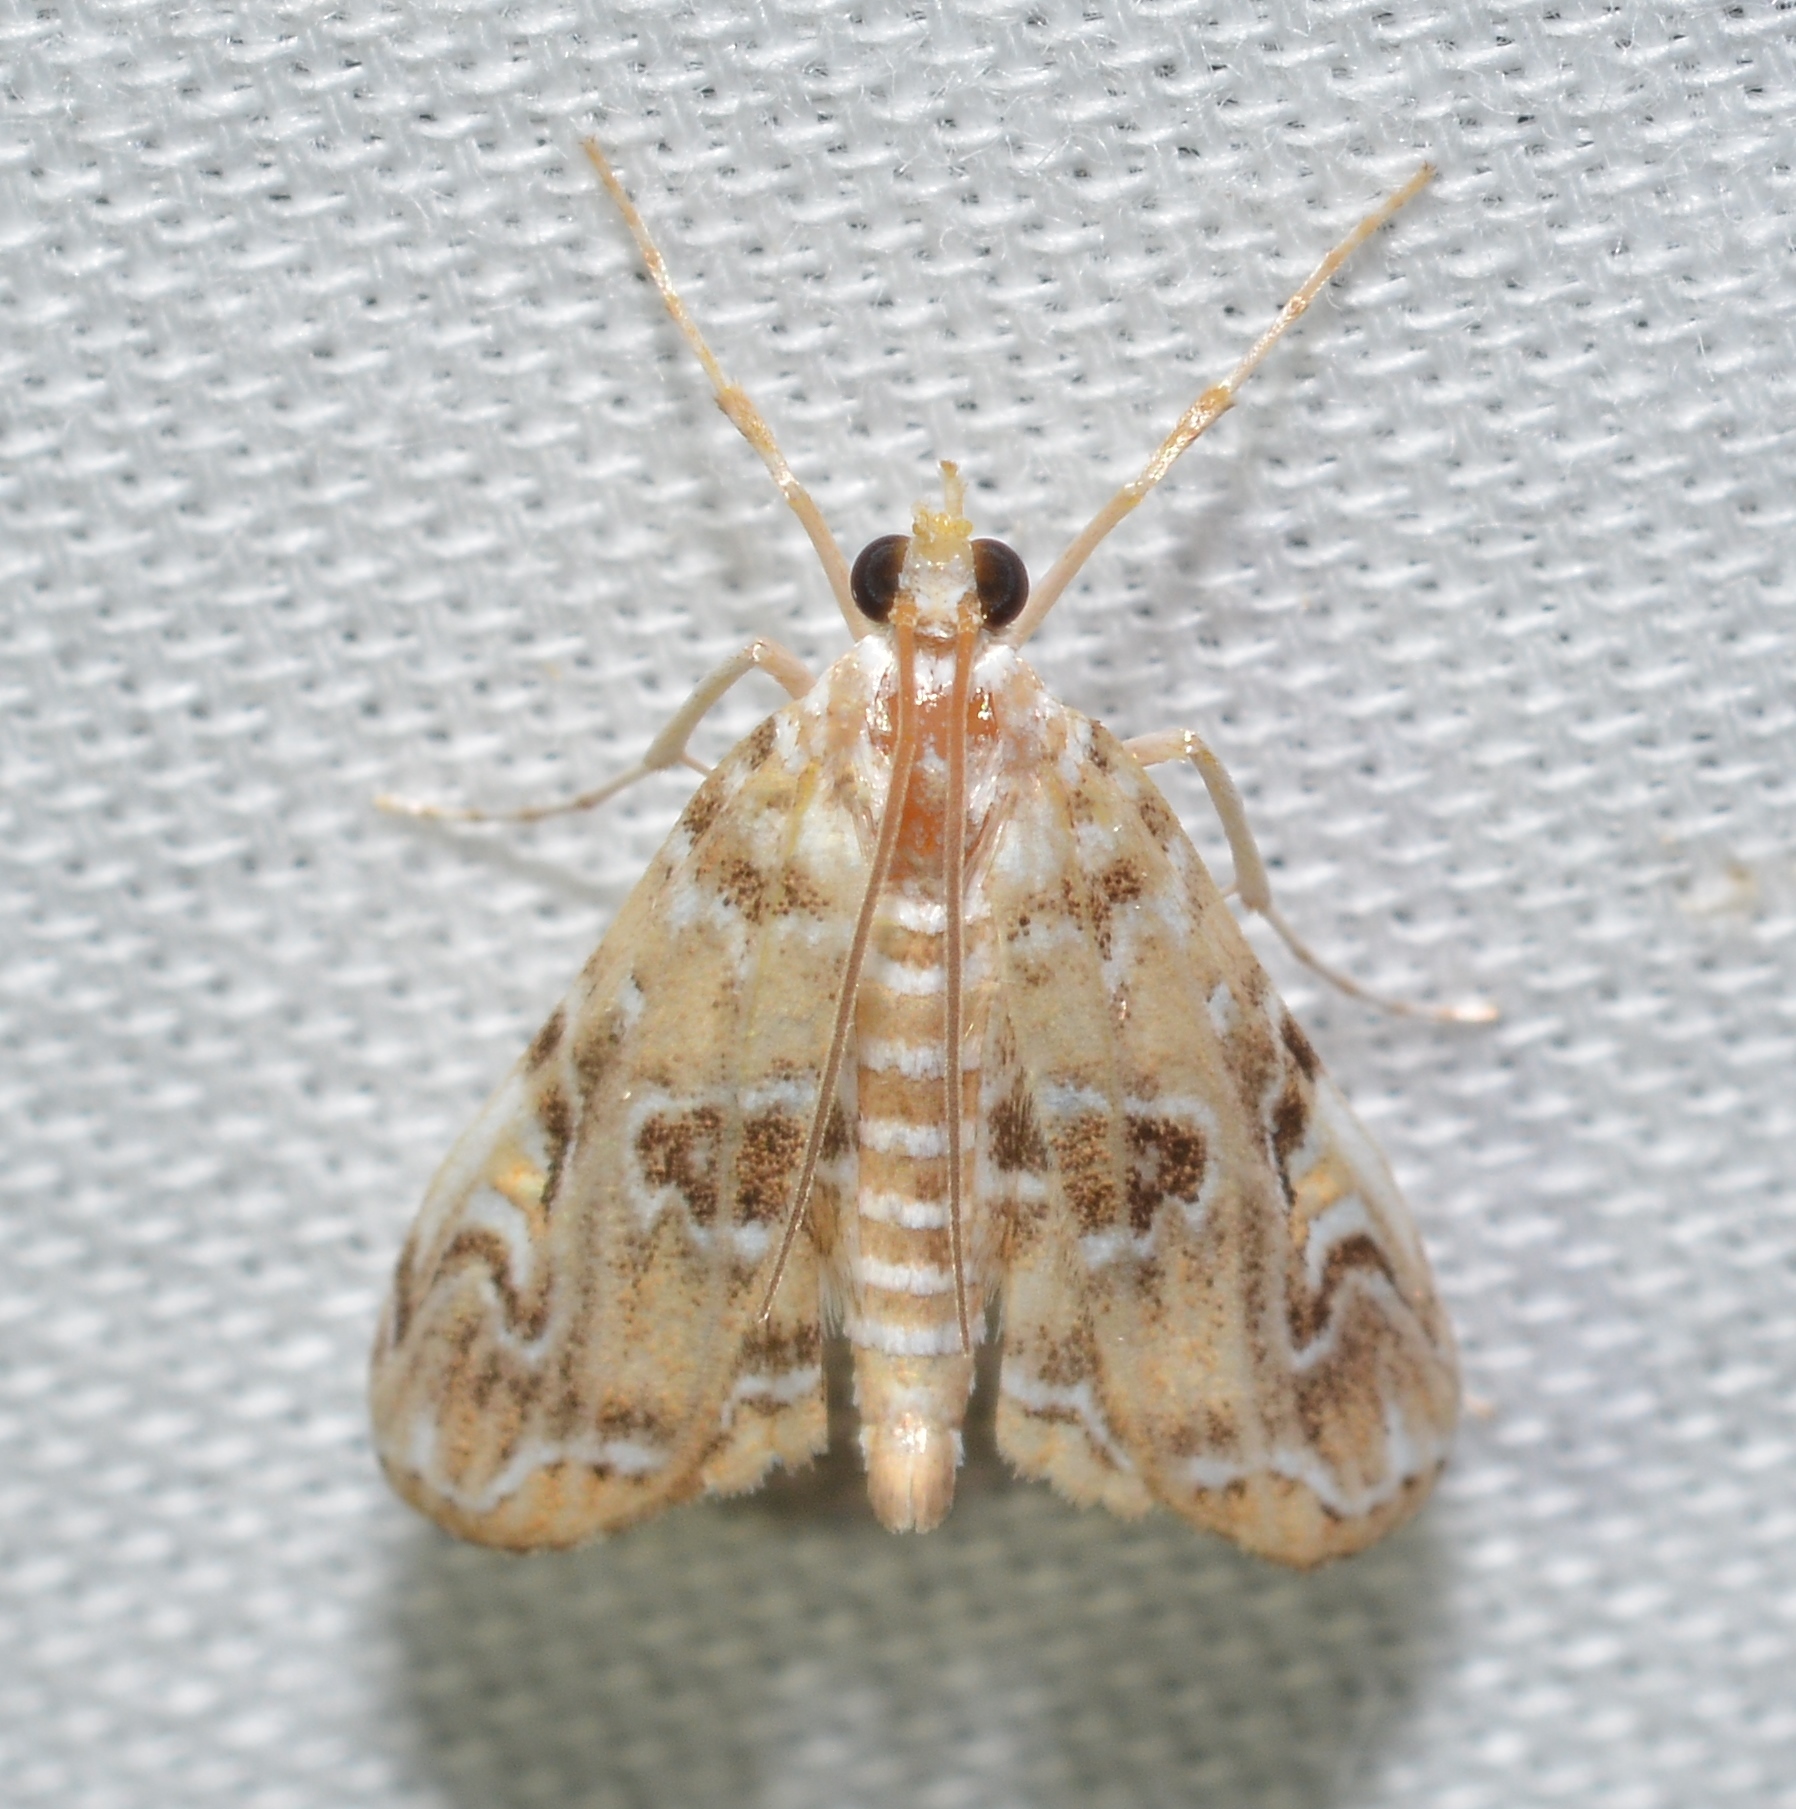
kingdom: Animalia
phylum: Arthropoda
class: Insecta
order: Lepidoptera
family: Crambidae
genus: Elophila
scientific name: Elophila gyralis
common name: Waterlily borer moth
